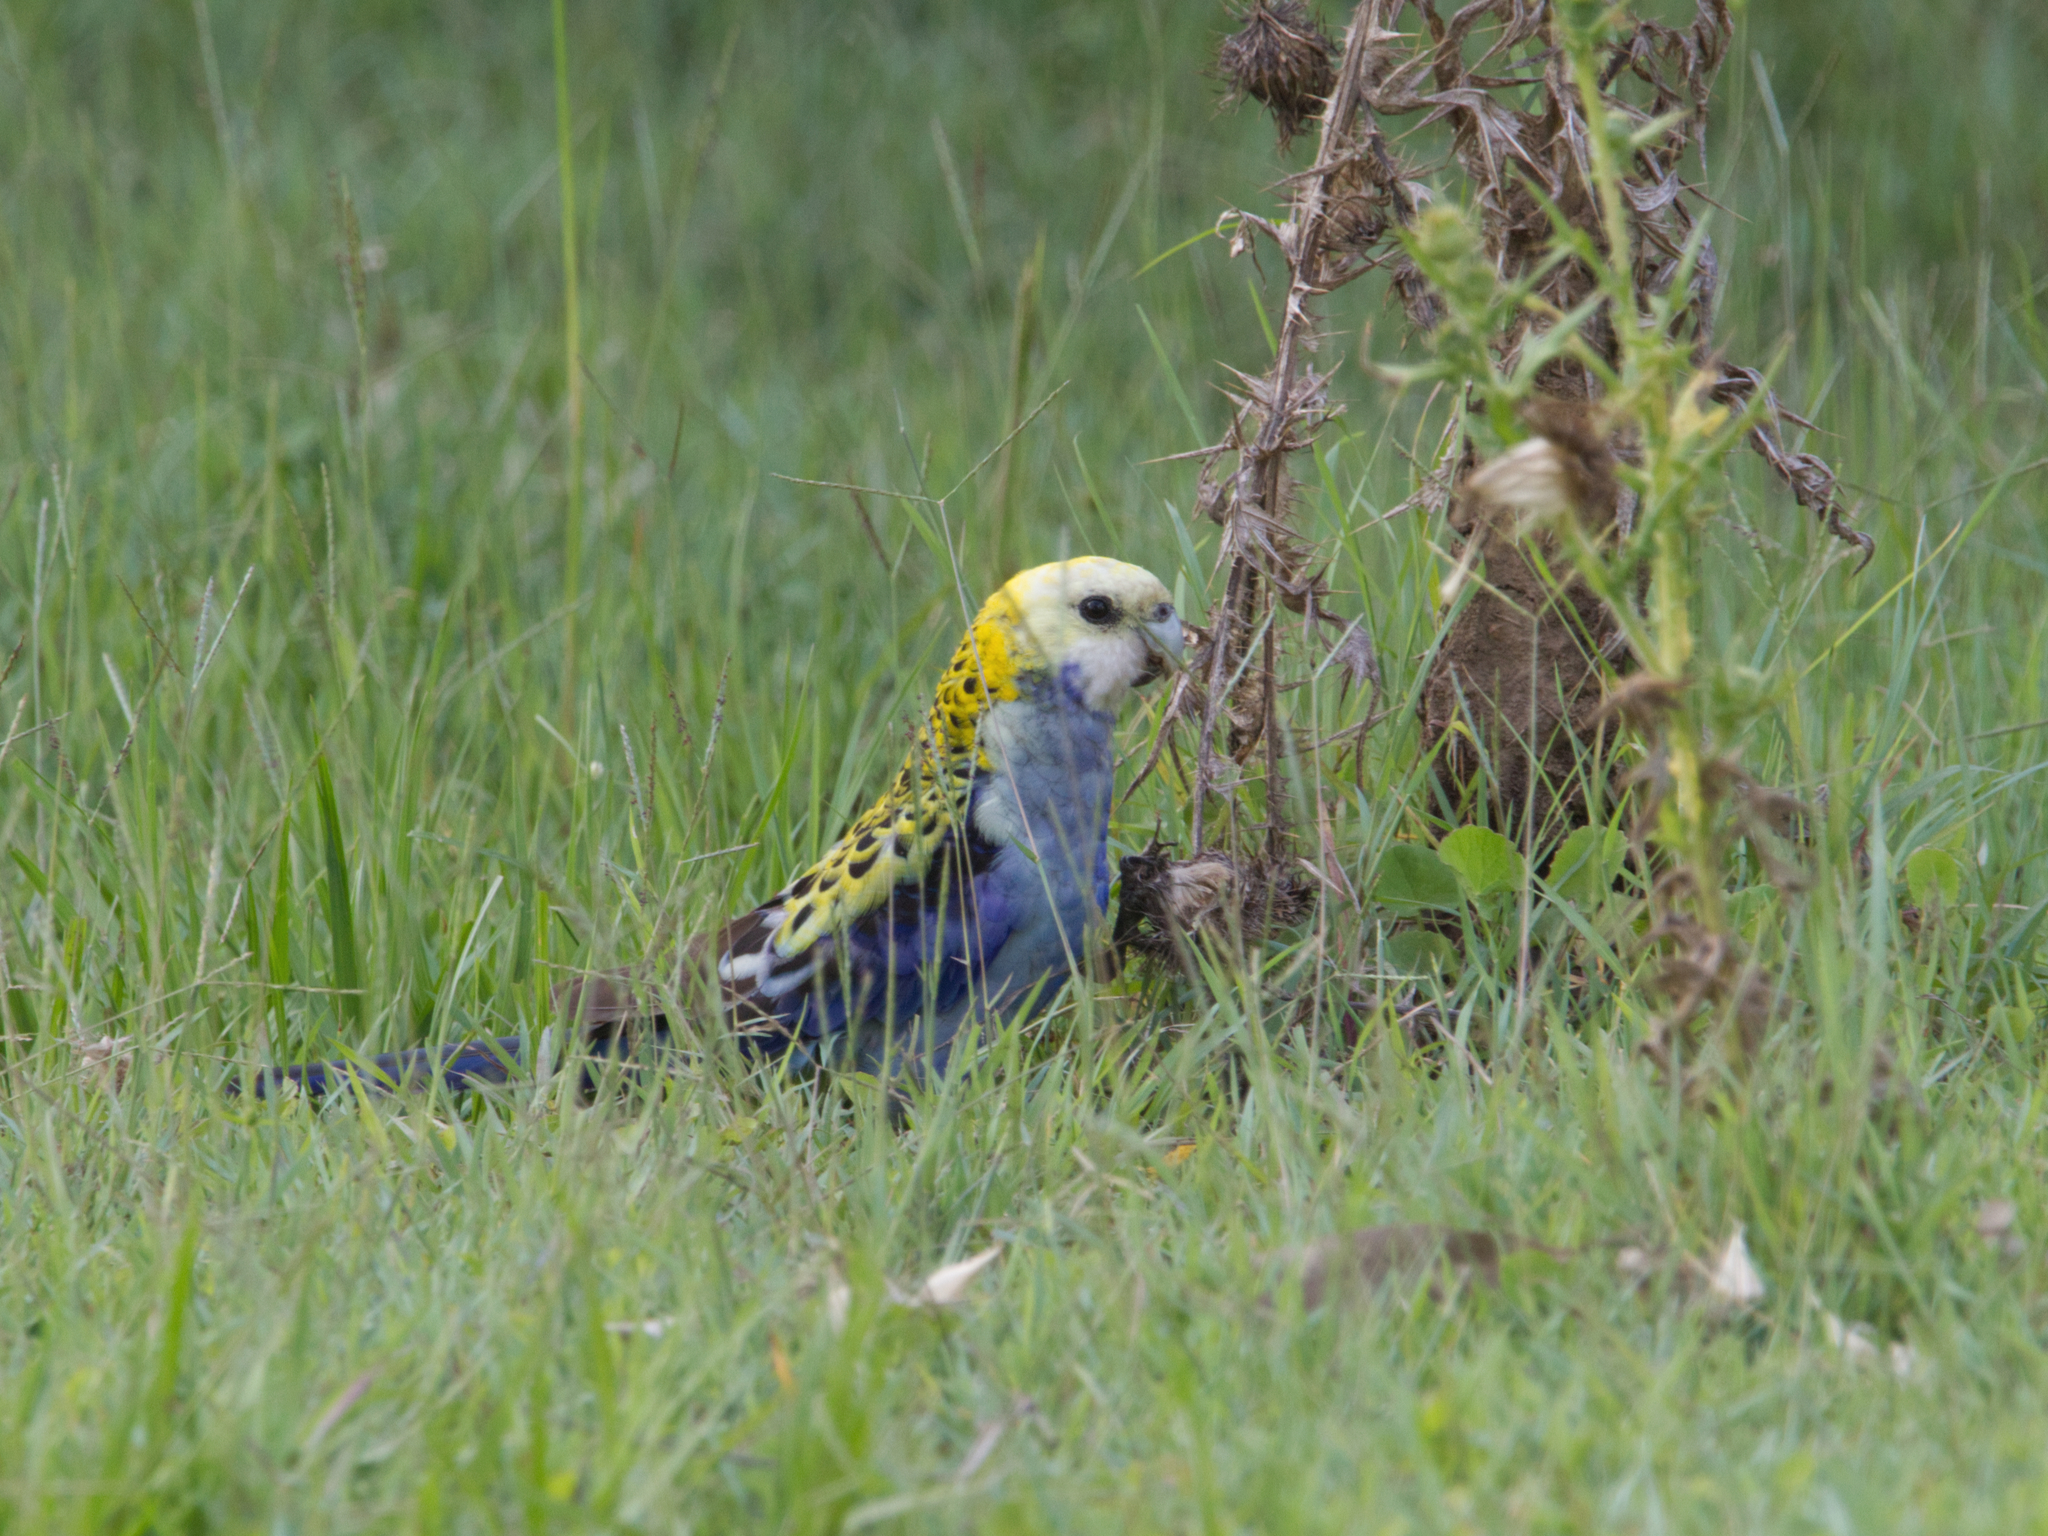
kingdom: Animalia
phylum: Chordata
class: Aves
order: Psittaciformes
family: Psittacidae
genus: Platycercus
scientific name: Platycercus adscitus
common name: Pale-headed rosella
